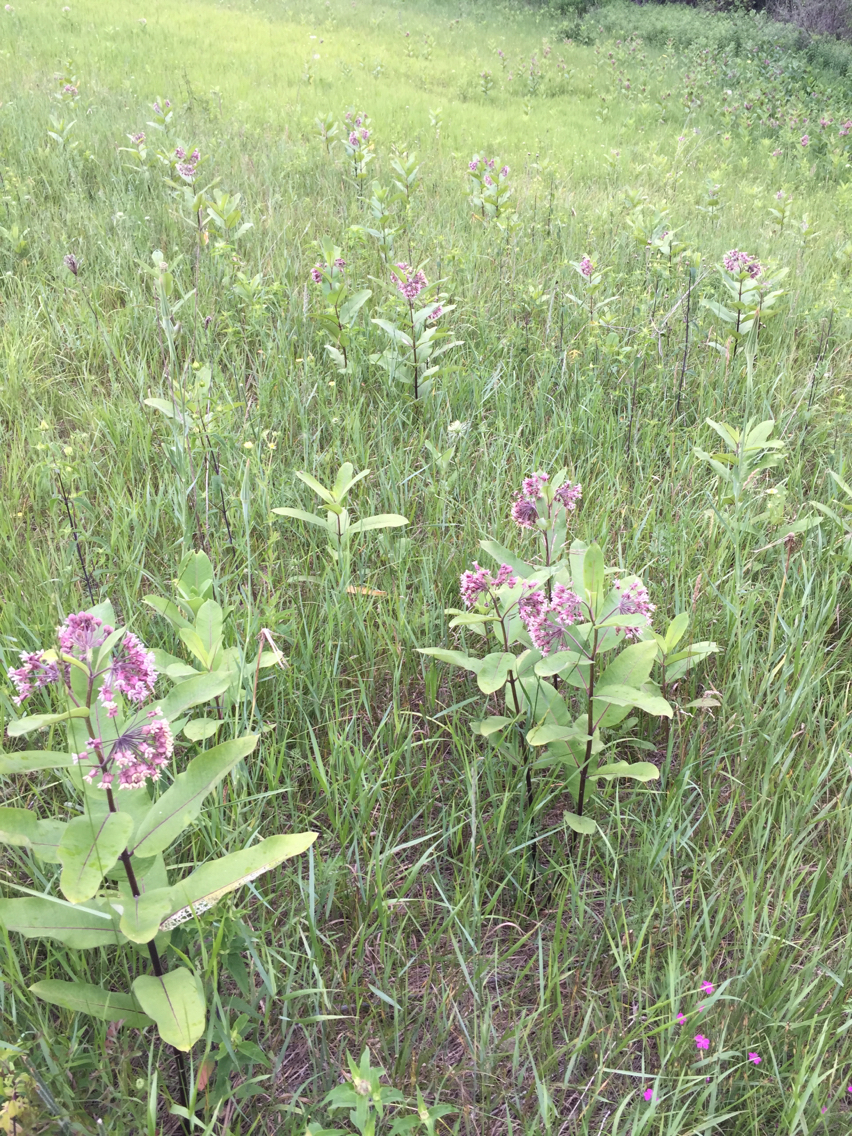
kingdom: Plantae
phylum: Tracheophyta
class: Magnoliopsida
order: Gentianales
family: Apocynaceae
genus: Asclepias
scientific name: Asclepias syriaca
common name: Common milkweed
